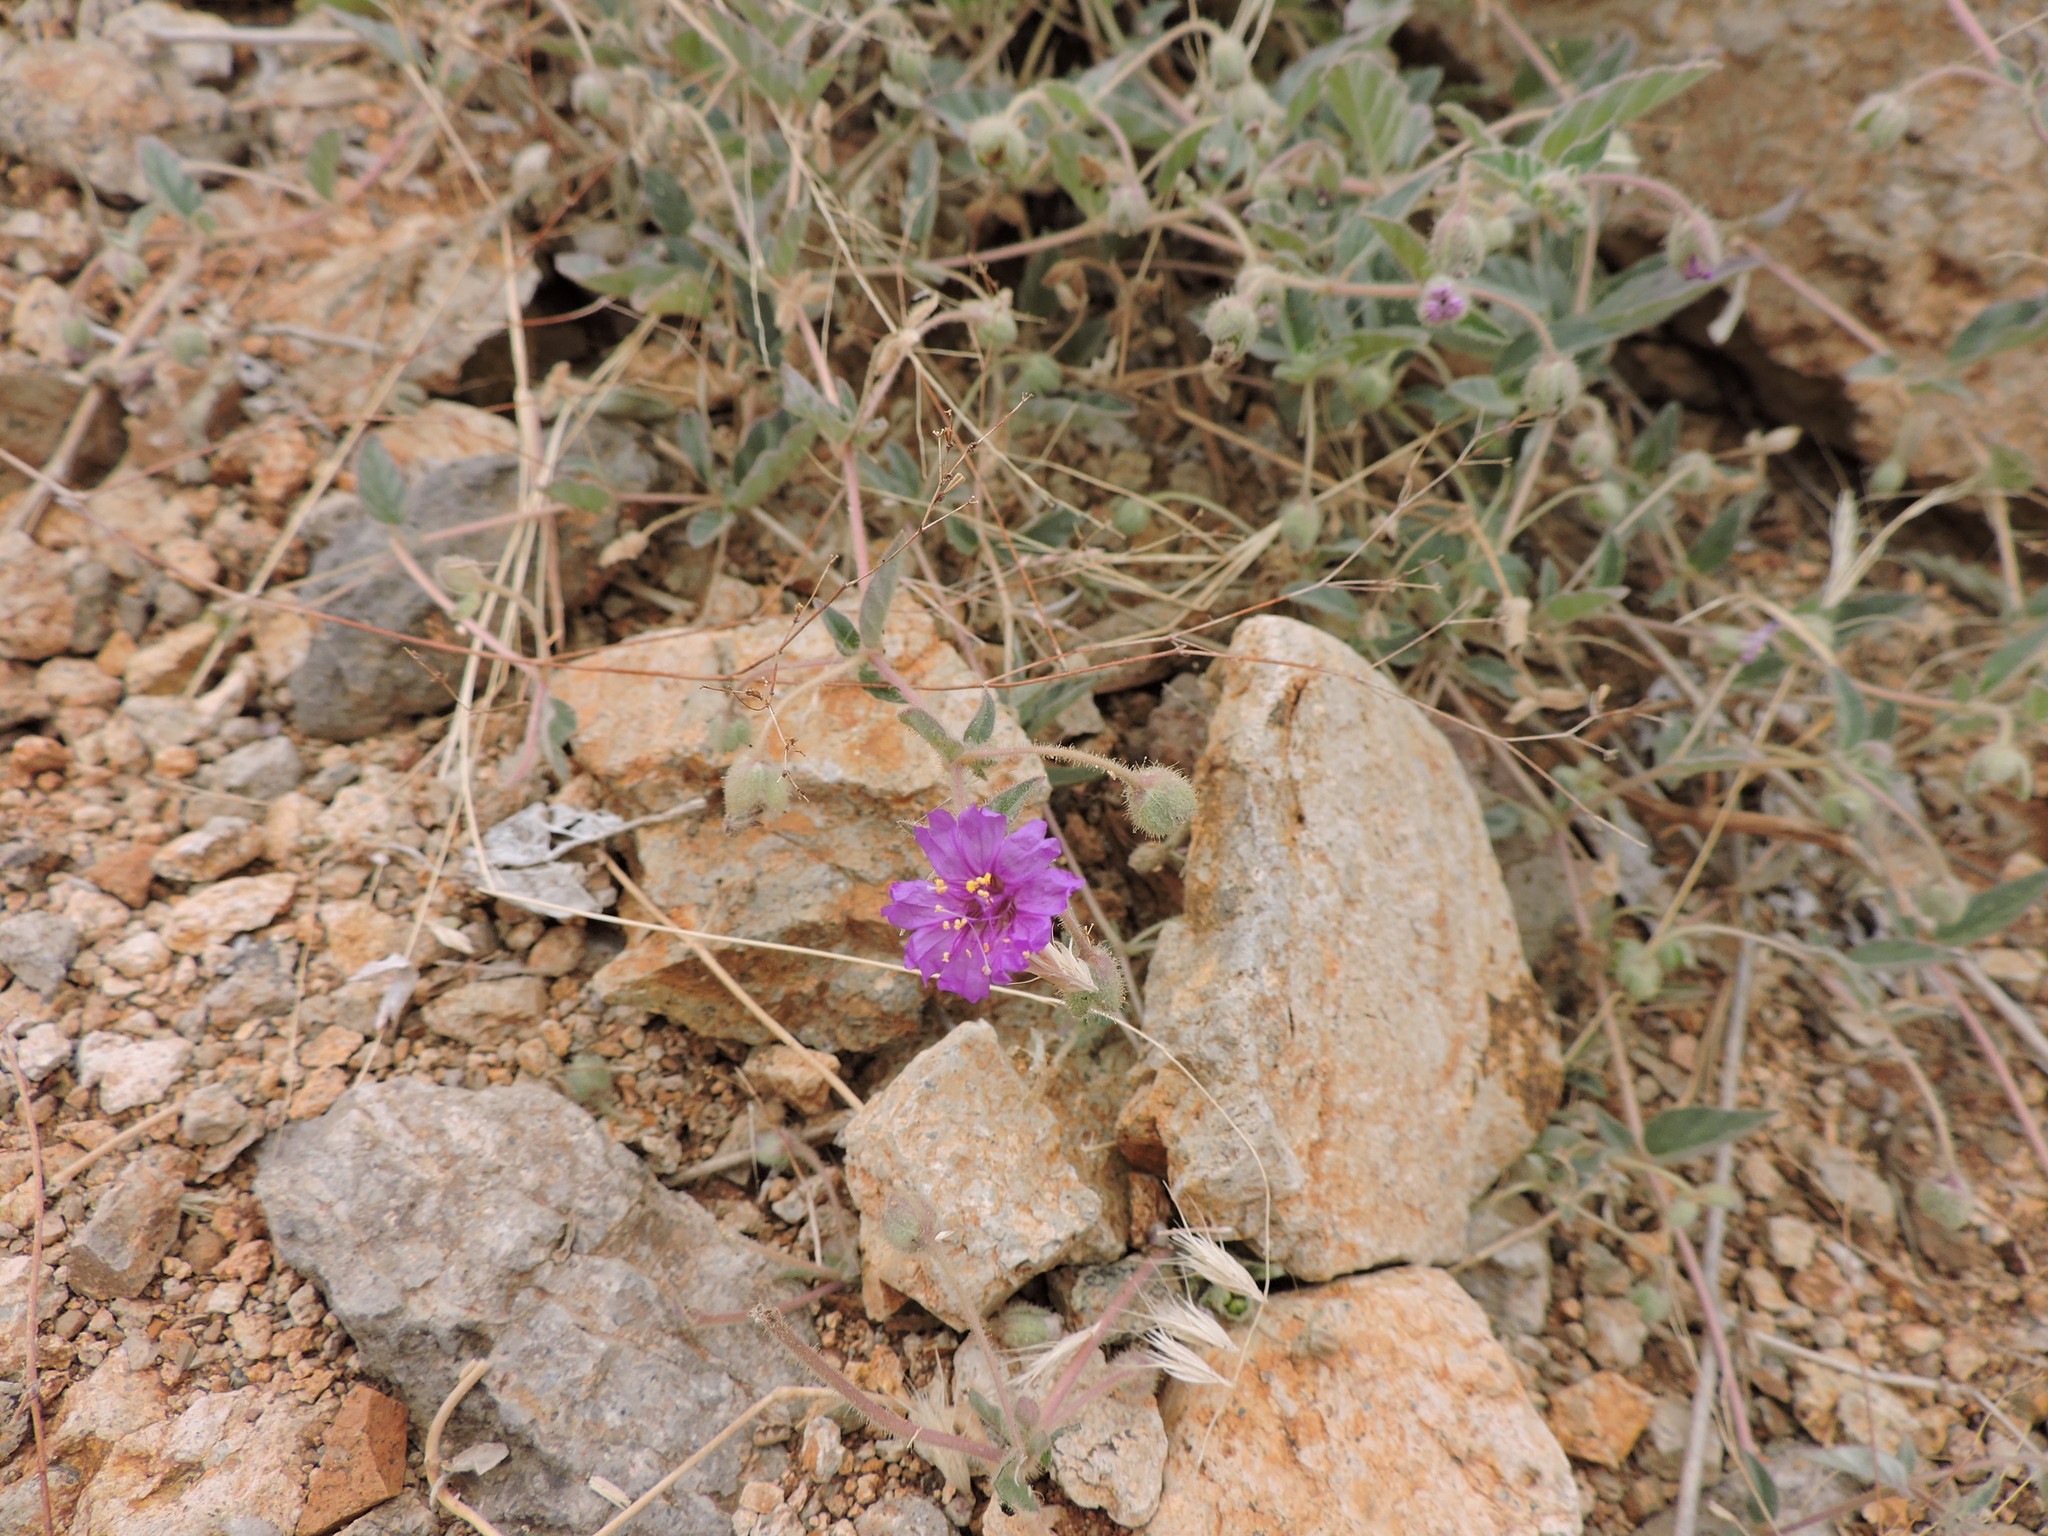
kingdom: Plantae
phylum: Tracheophyta
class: Magnoliopsida
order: Caryophyllales
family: Nyctaginaceae
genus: Allionia
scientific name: Allionia incarnata
